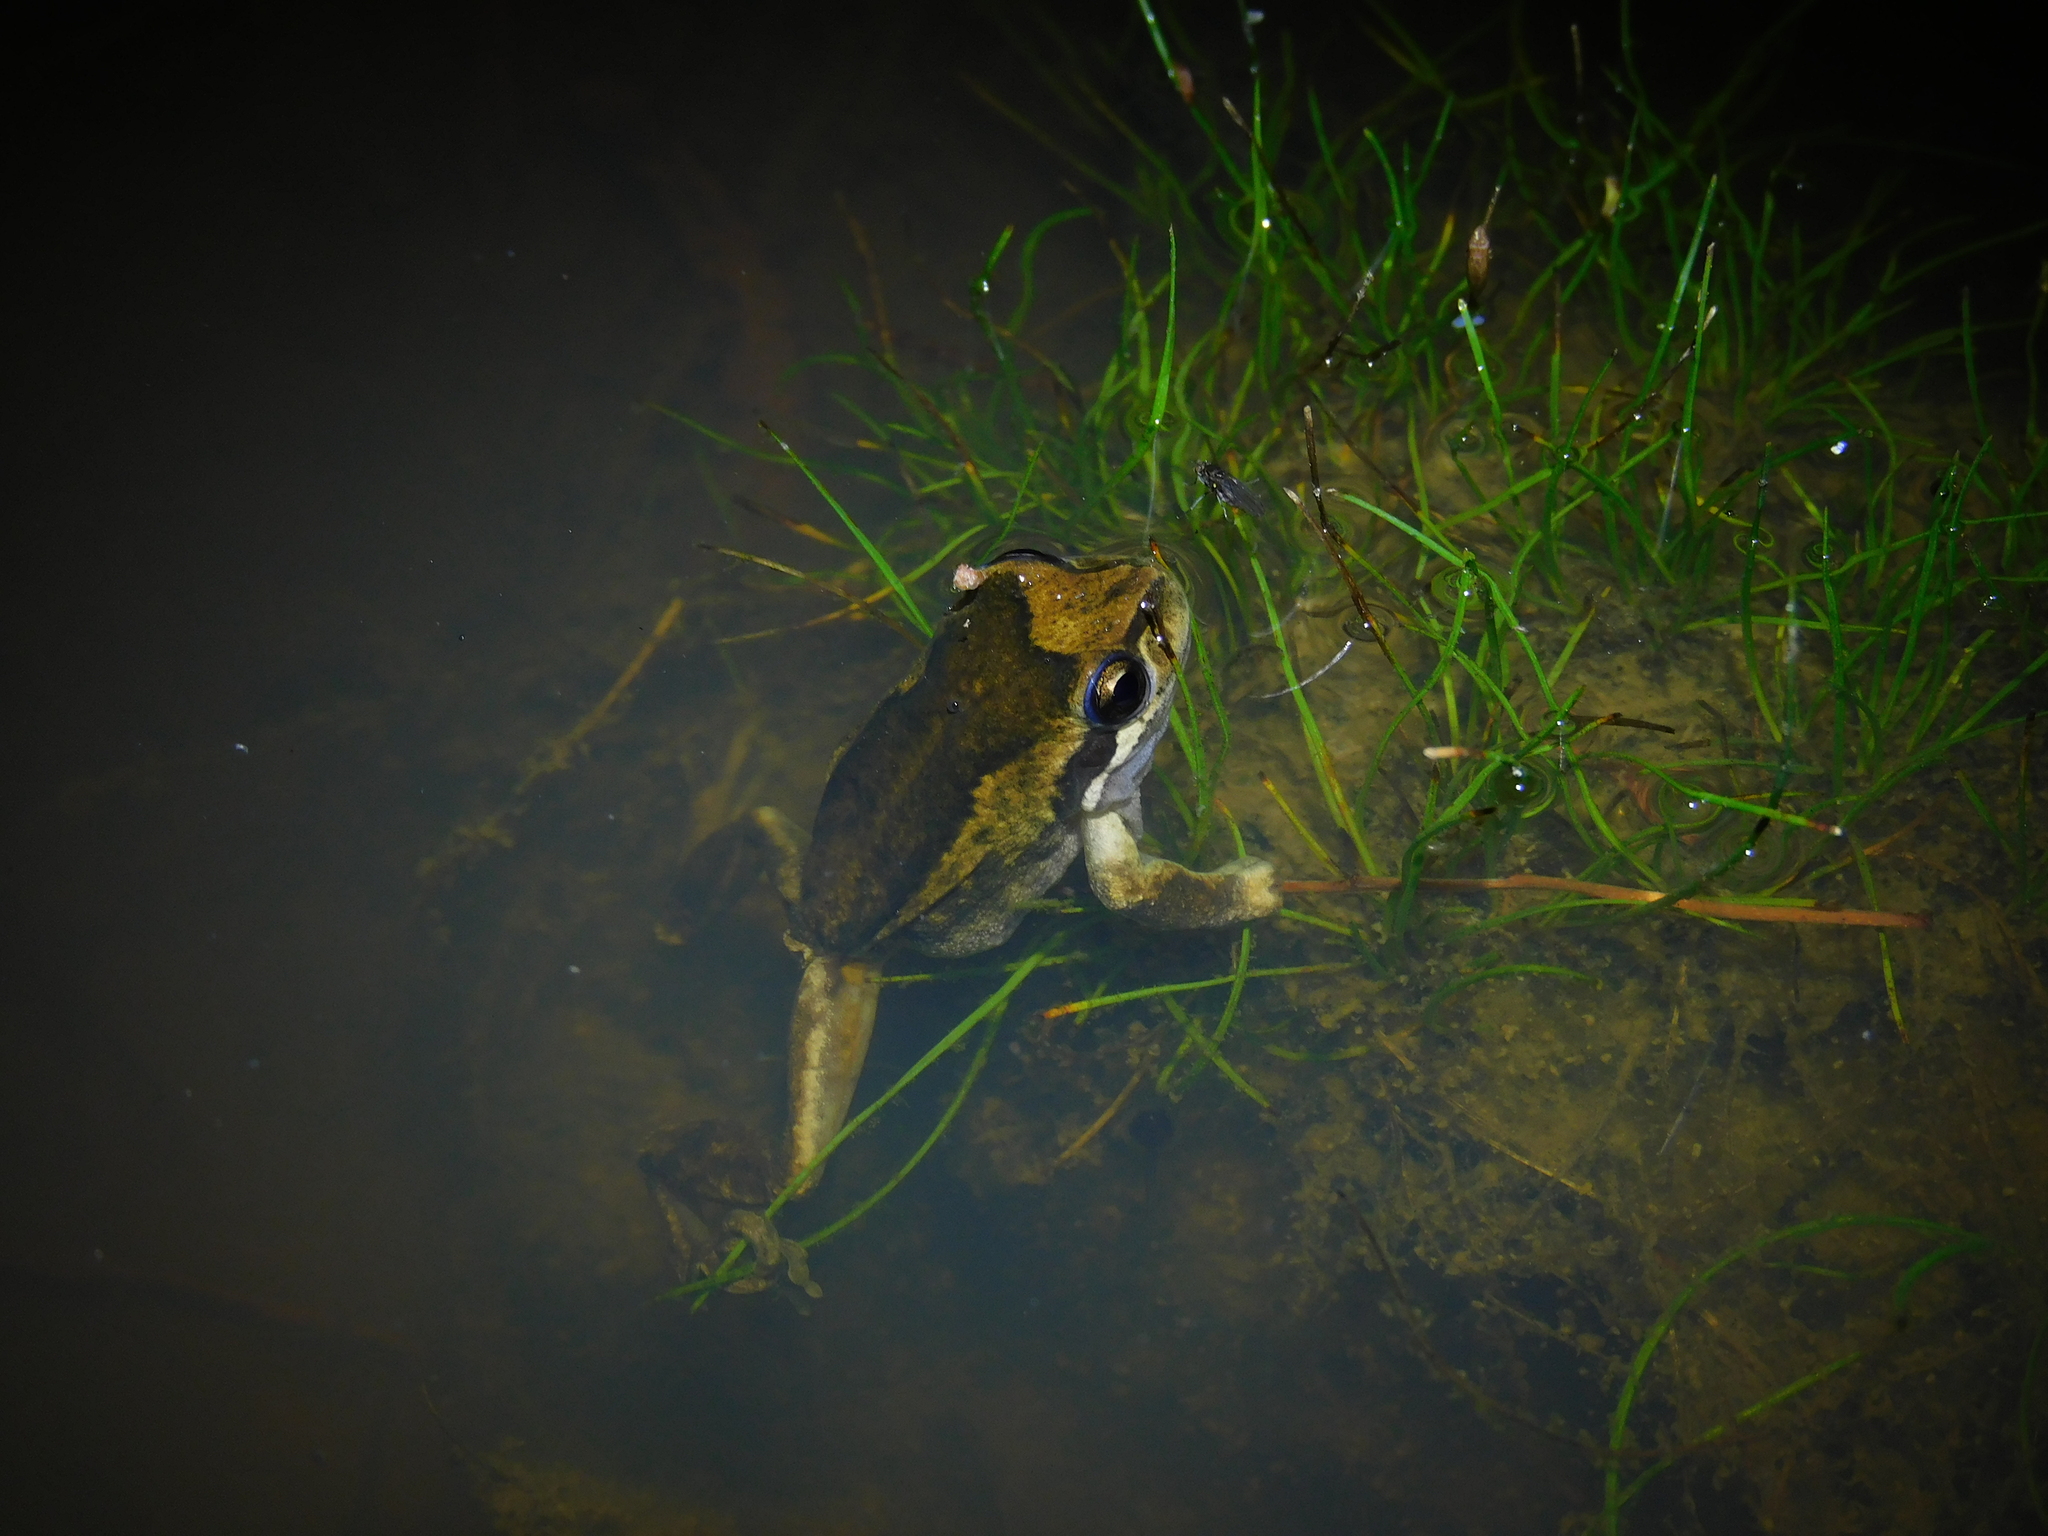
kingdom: Animalia
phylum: Chordata
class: Amphibia
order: Anura
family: Pelodryadidae
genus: Litoria
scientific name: Litoria ewingii
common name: Southern brown tree frog
